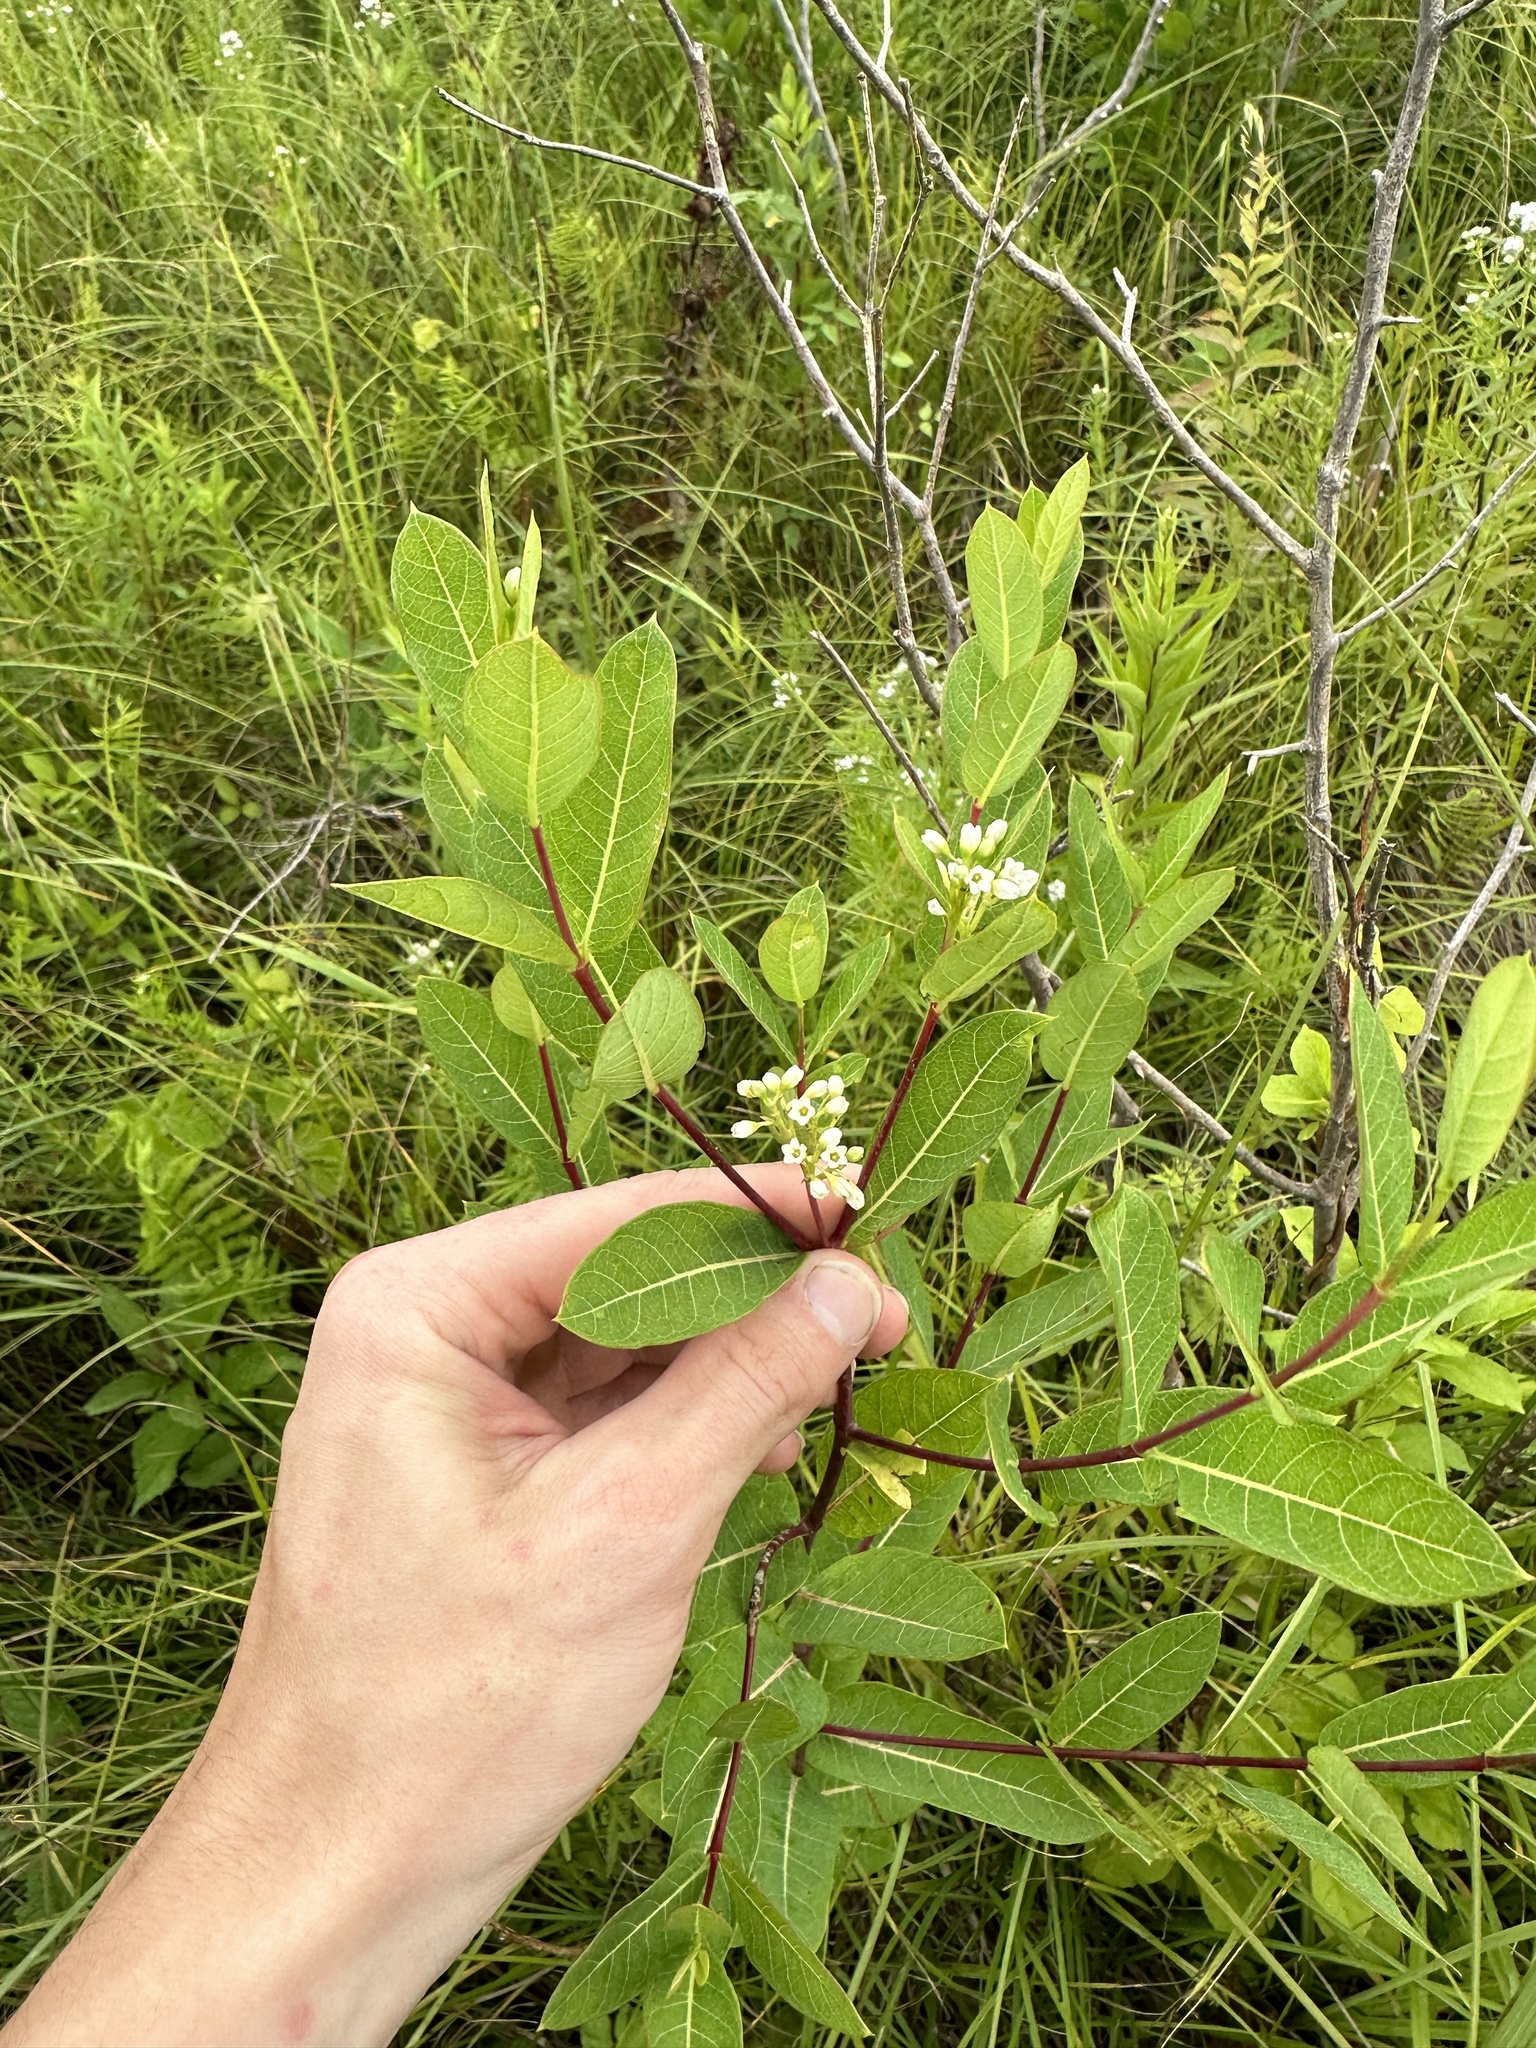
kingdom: Plantae
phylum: Tracheophyta
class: Magnoliopsida
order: Gentianales
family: Apocynaceae
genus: Apocynum
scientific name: Apocynum cannabinum
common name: Hemp dogbane
